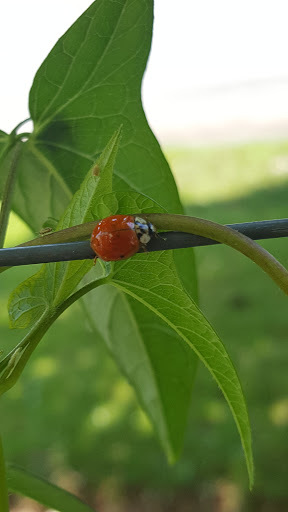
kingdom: Animalia
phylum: Arthropoda
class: Insecta
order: Coleoptera
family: Coccinellidae
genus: Harmonia
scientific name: Harmonia axyridis
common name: Harlequin ladybird
